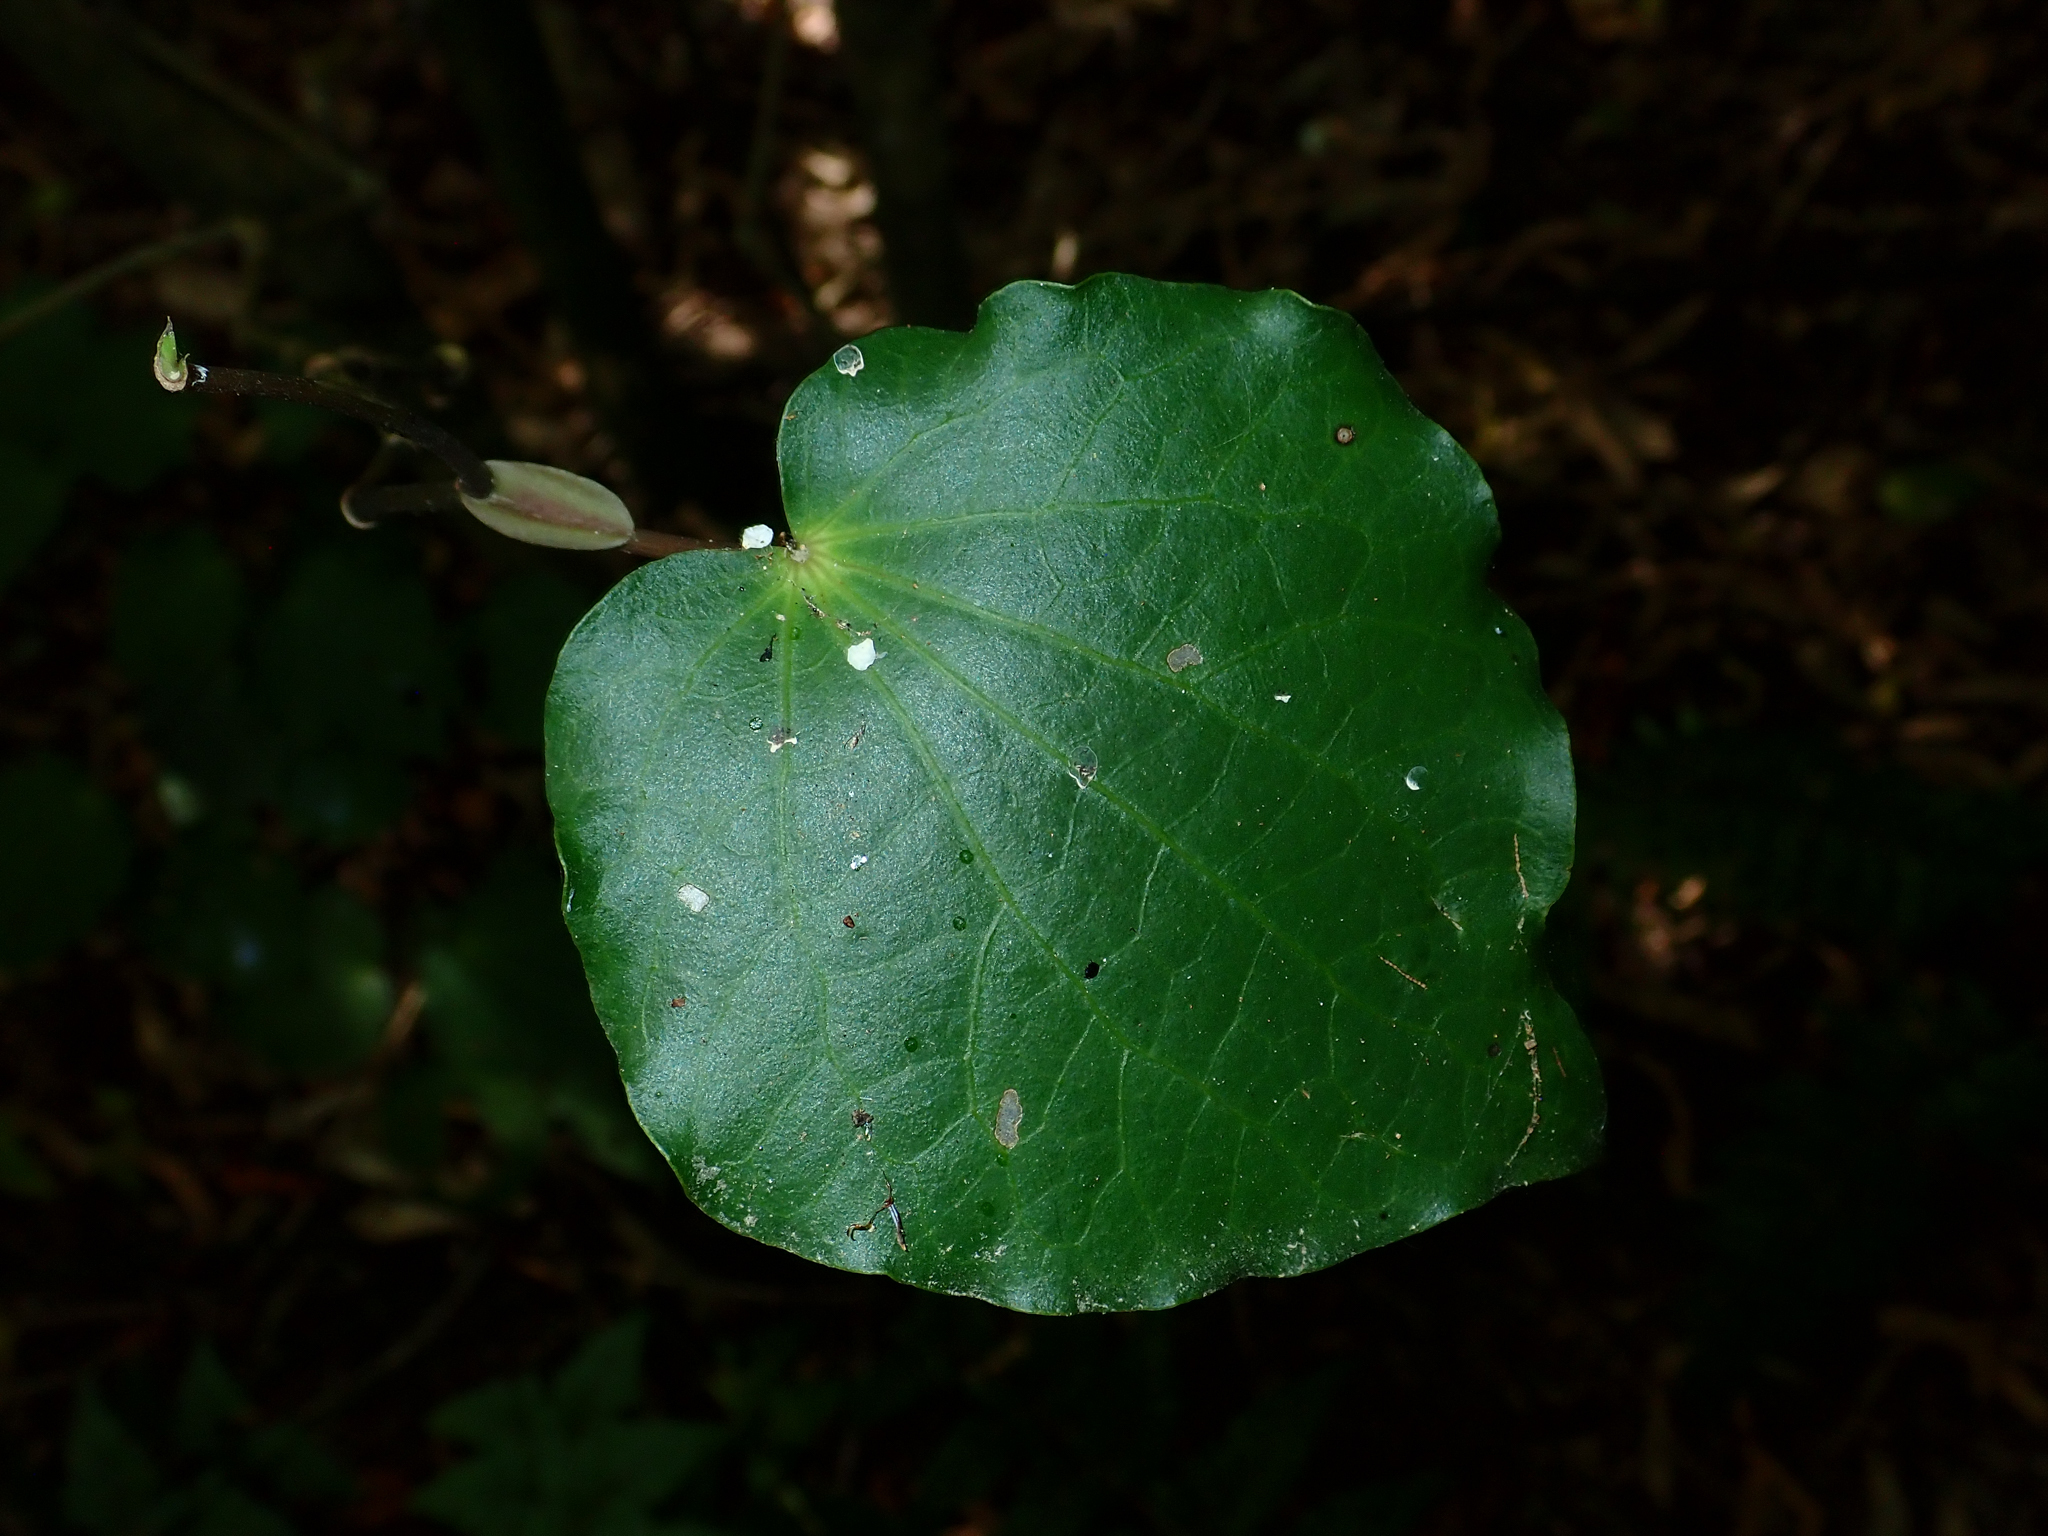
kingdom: Plantae
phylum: Tracheophyta
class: Magnoliopsida
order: Piperales
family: Piperaceae
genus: Macropiper
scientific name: Macropiper excelsum
